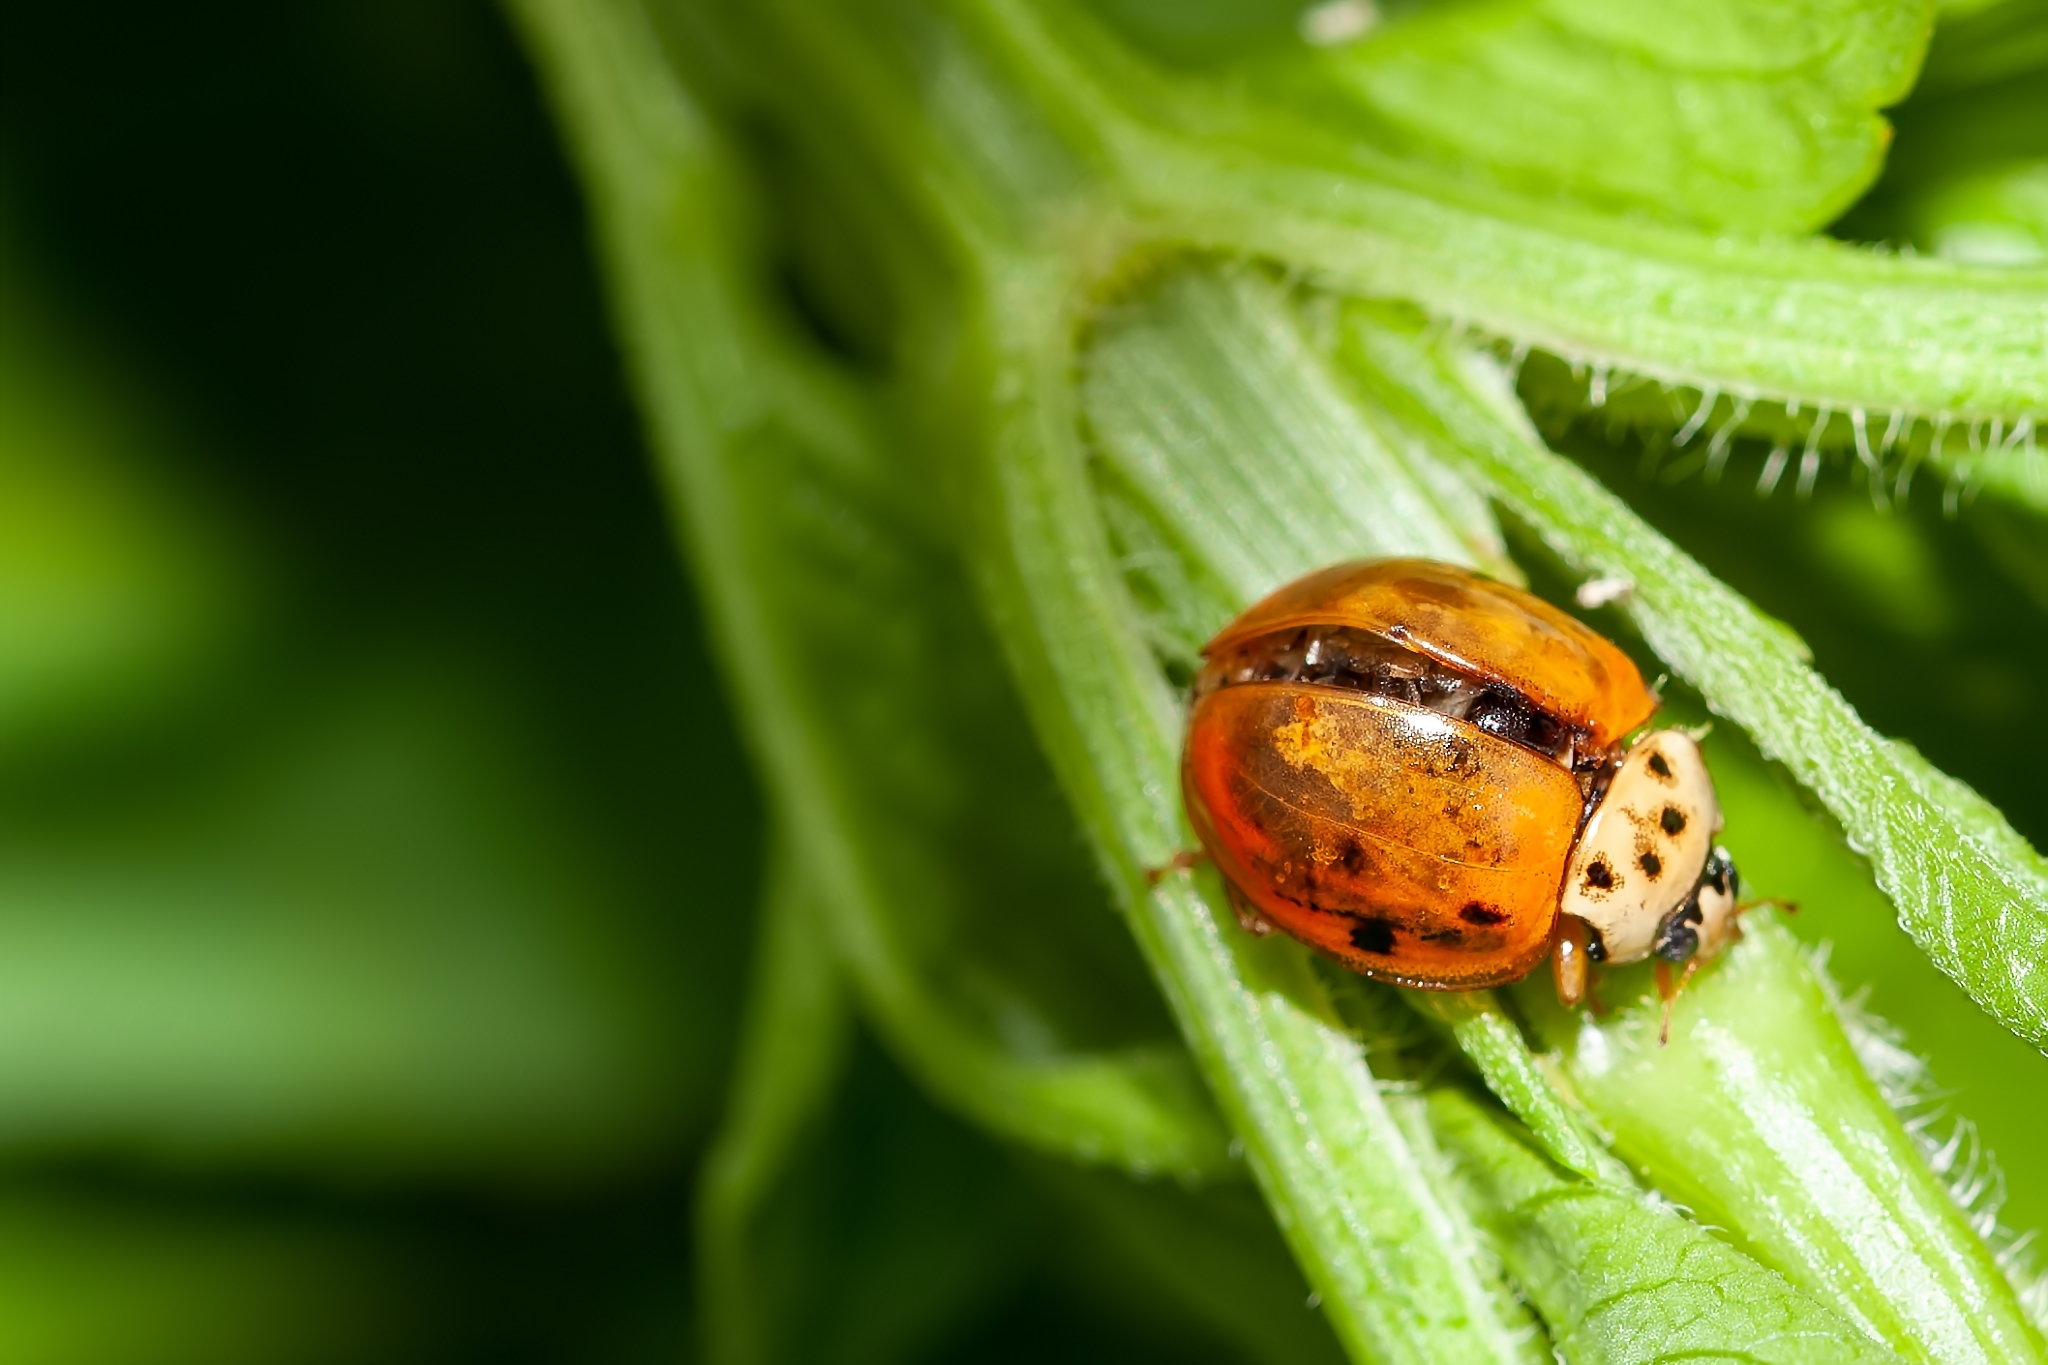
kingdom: Animalia
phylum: Arthropoda
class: Insecta
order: Coleoptera
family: Coccinellidae
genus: Harmonia
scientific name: Harmonia axyridis
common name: Harlequin ladybird
